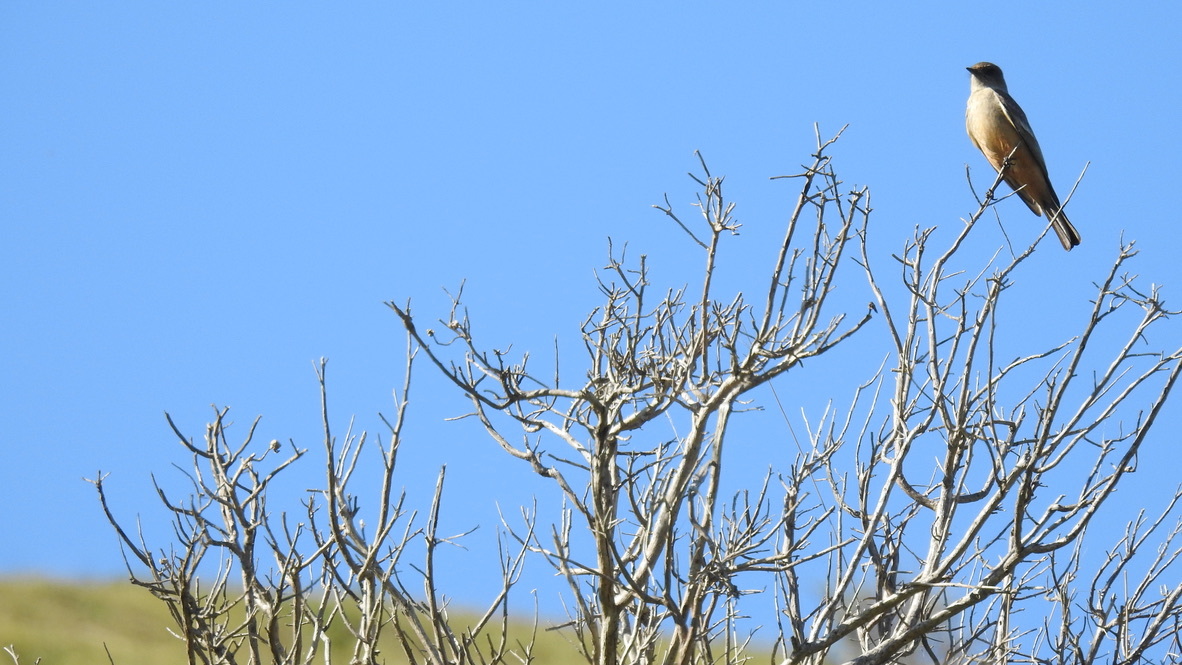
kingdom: Animalia
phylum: Chordata
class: Aves
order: Passeriformes
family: Tyrannidae
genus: Sayornis
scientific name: Sayornis saya
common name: Say's phoebe
